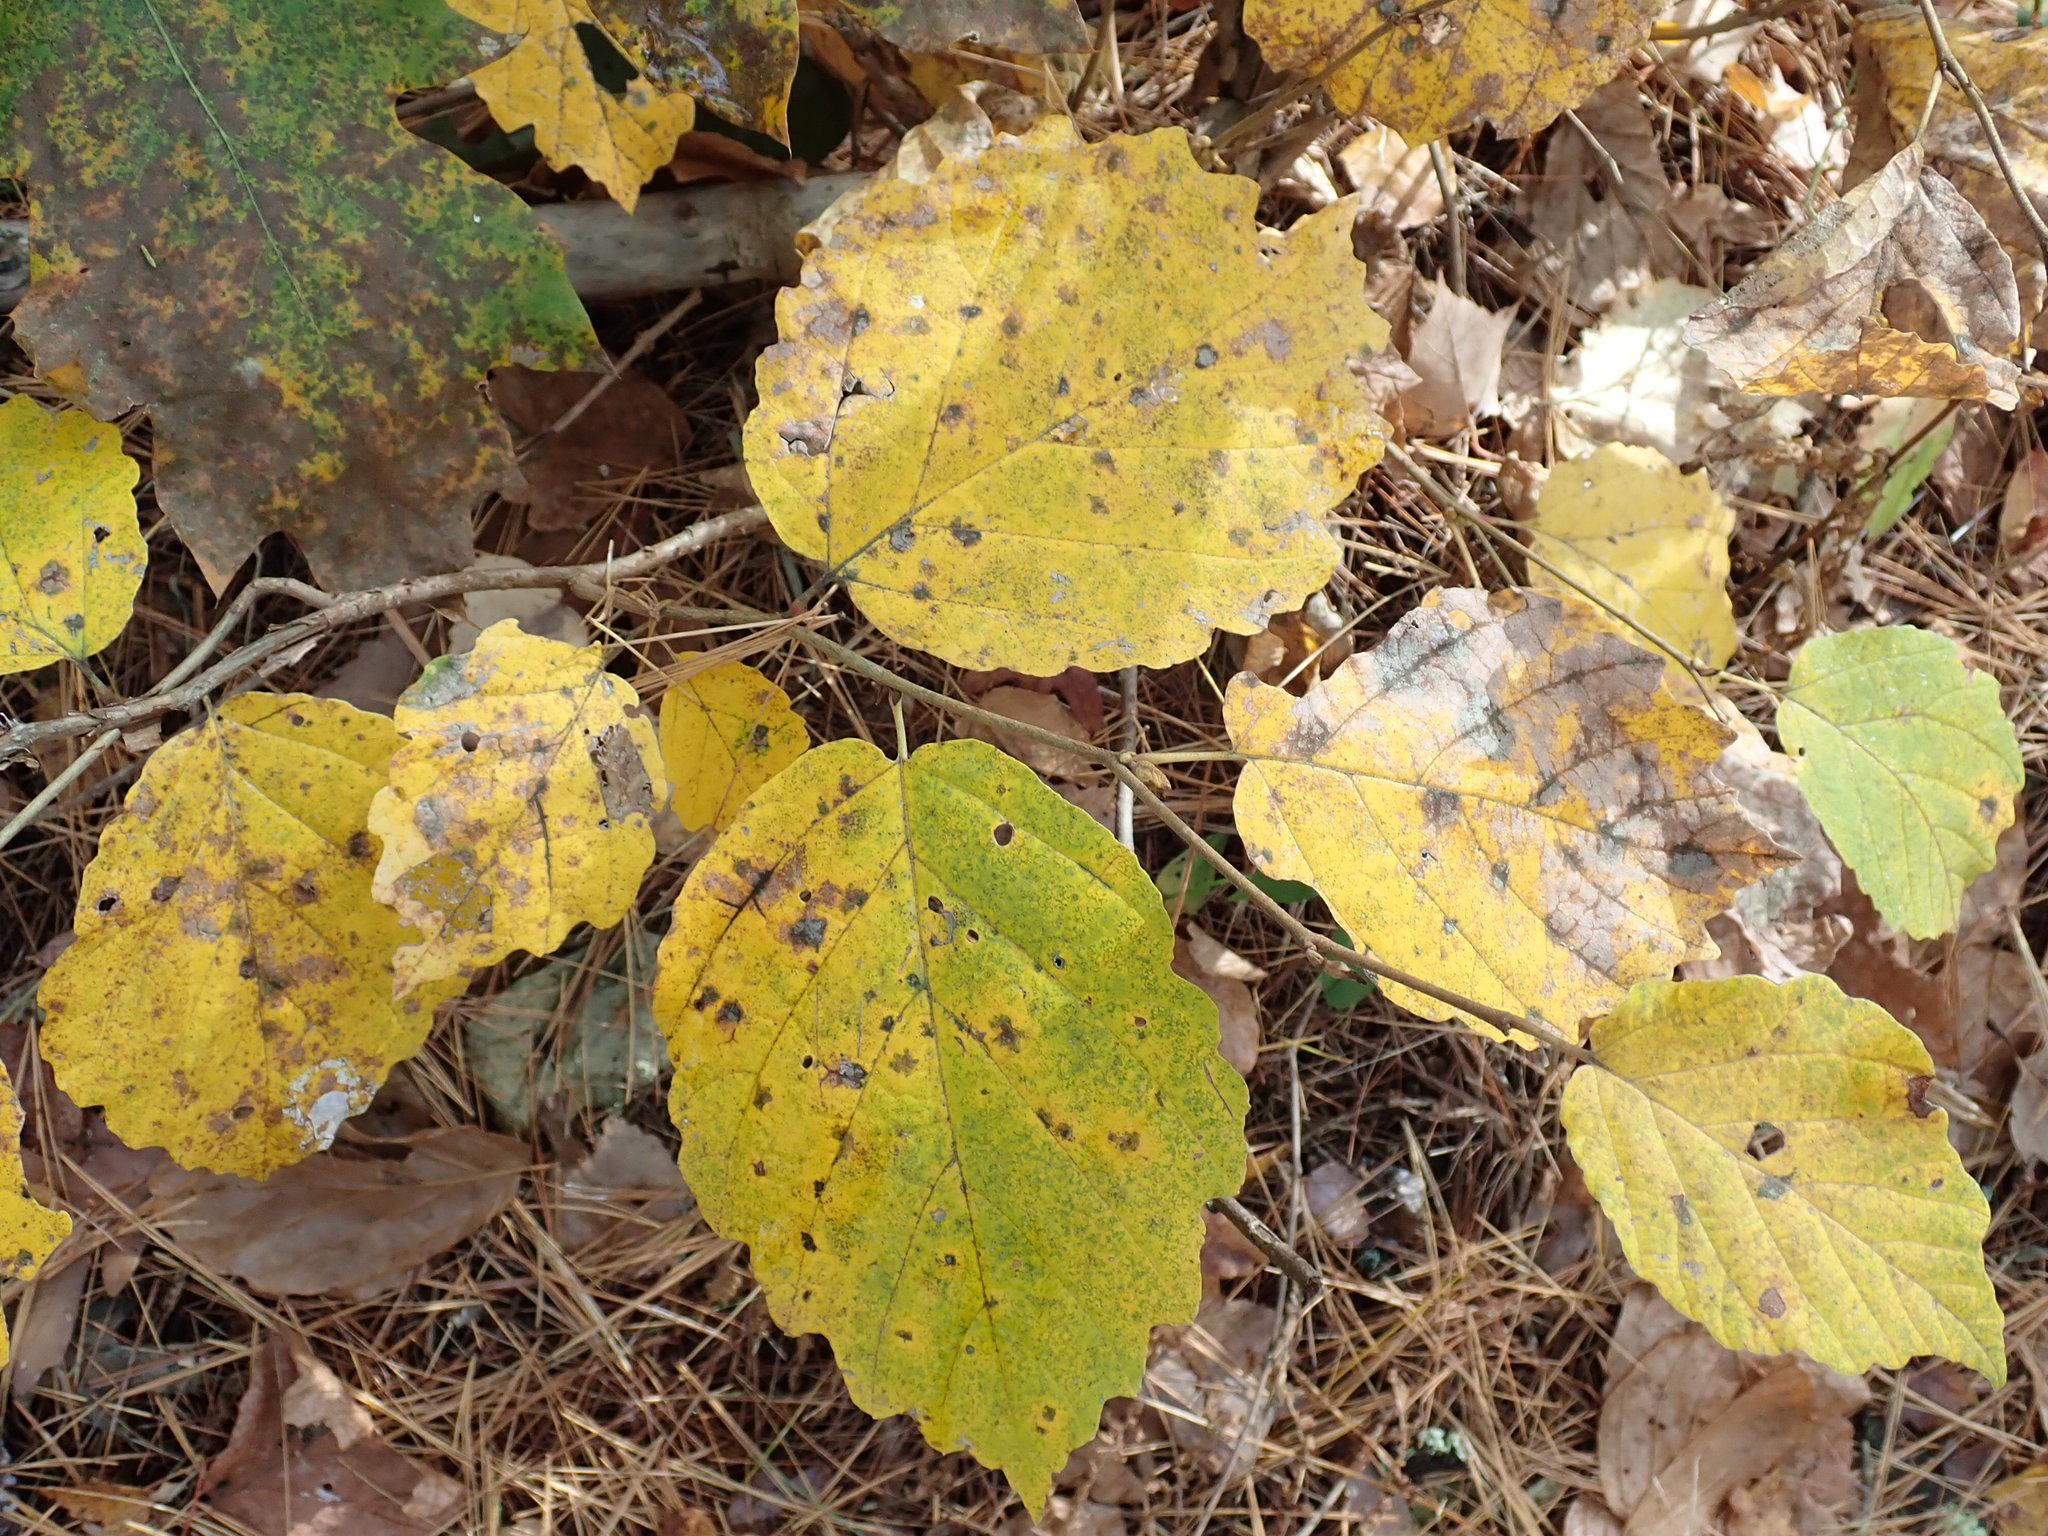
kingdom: Plantae
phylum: Tracheophyta
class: Magnoliopsida
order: Saxifragales
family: Hamamelidaceae
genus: Hamamelis
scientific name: Hamamelis virginiana
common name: Witch-hazel
